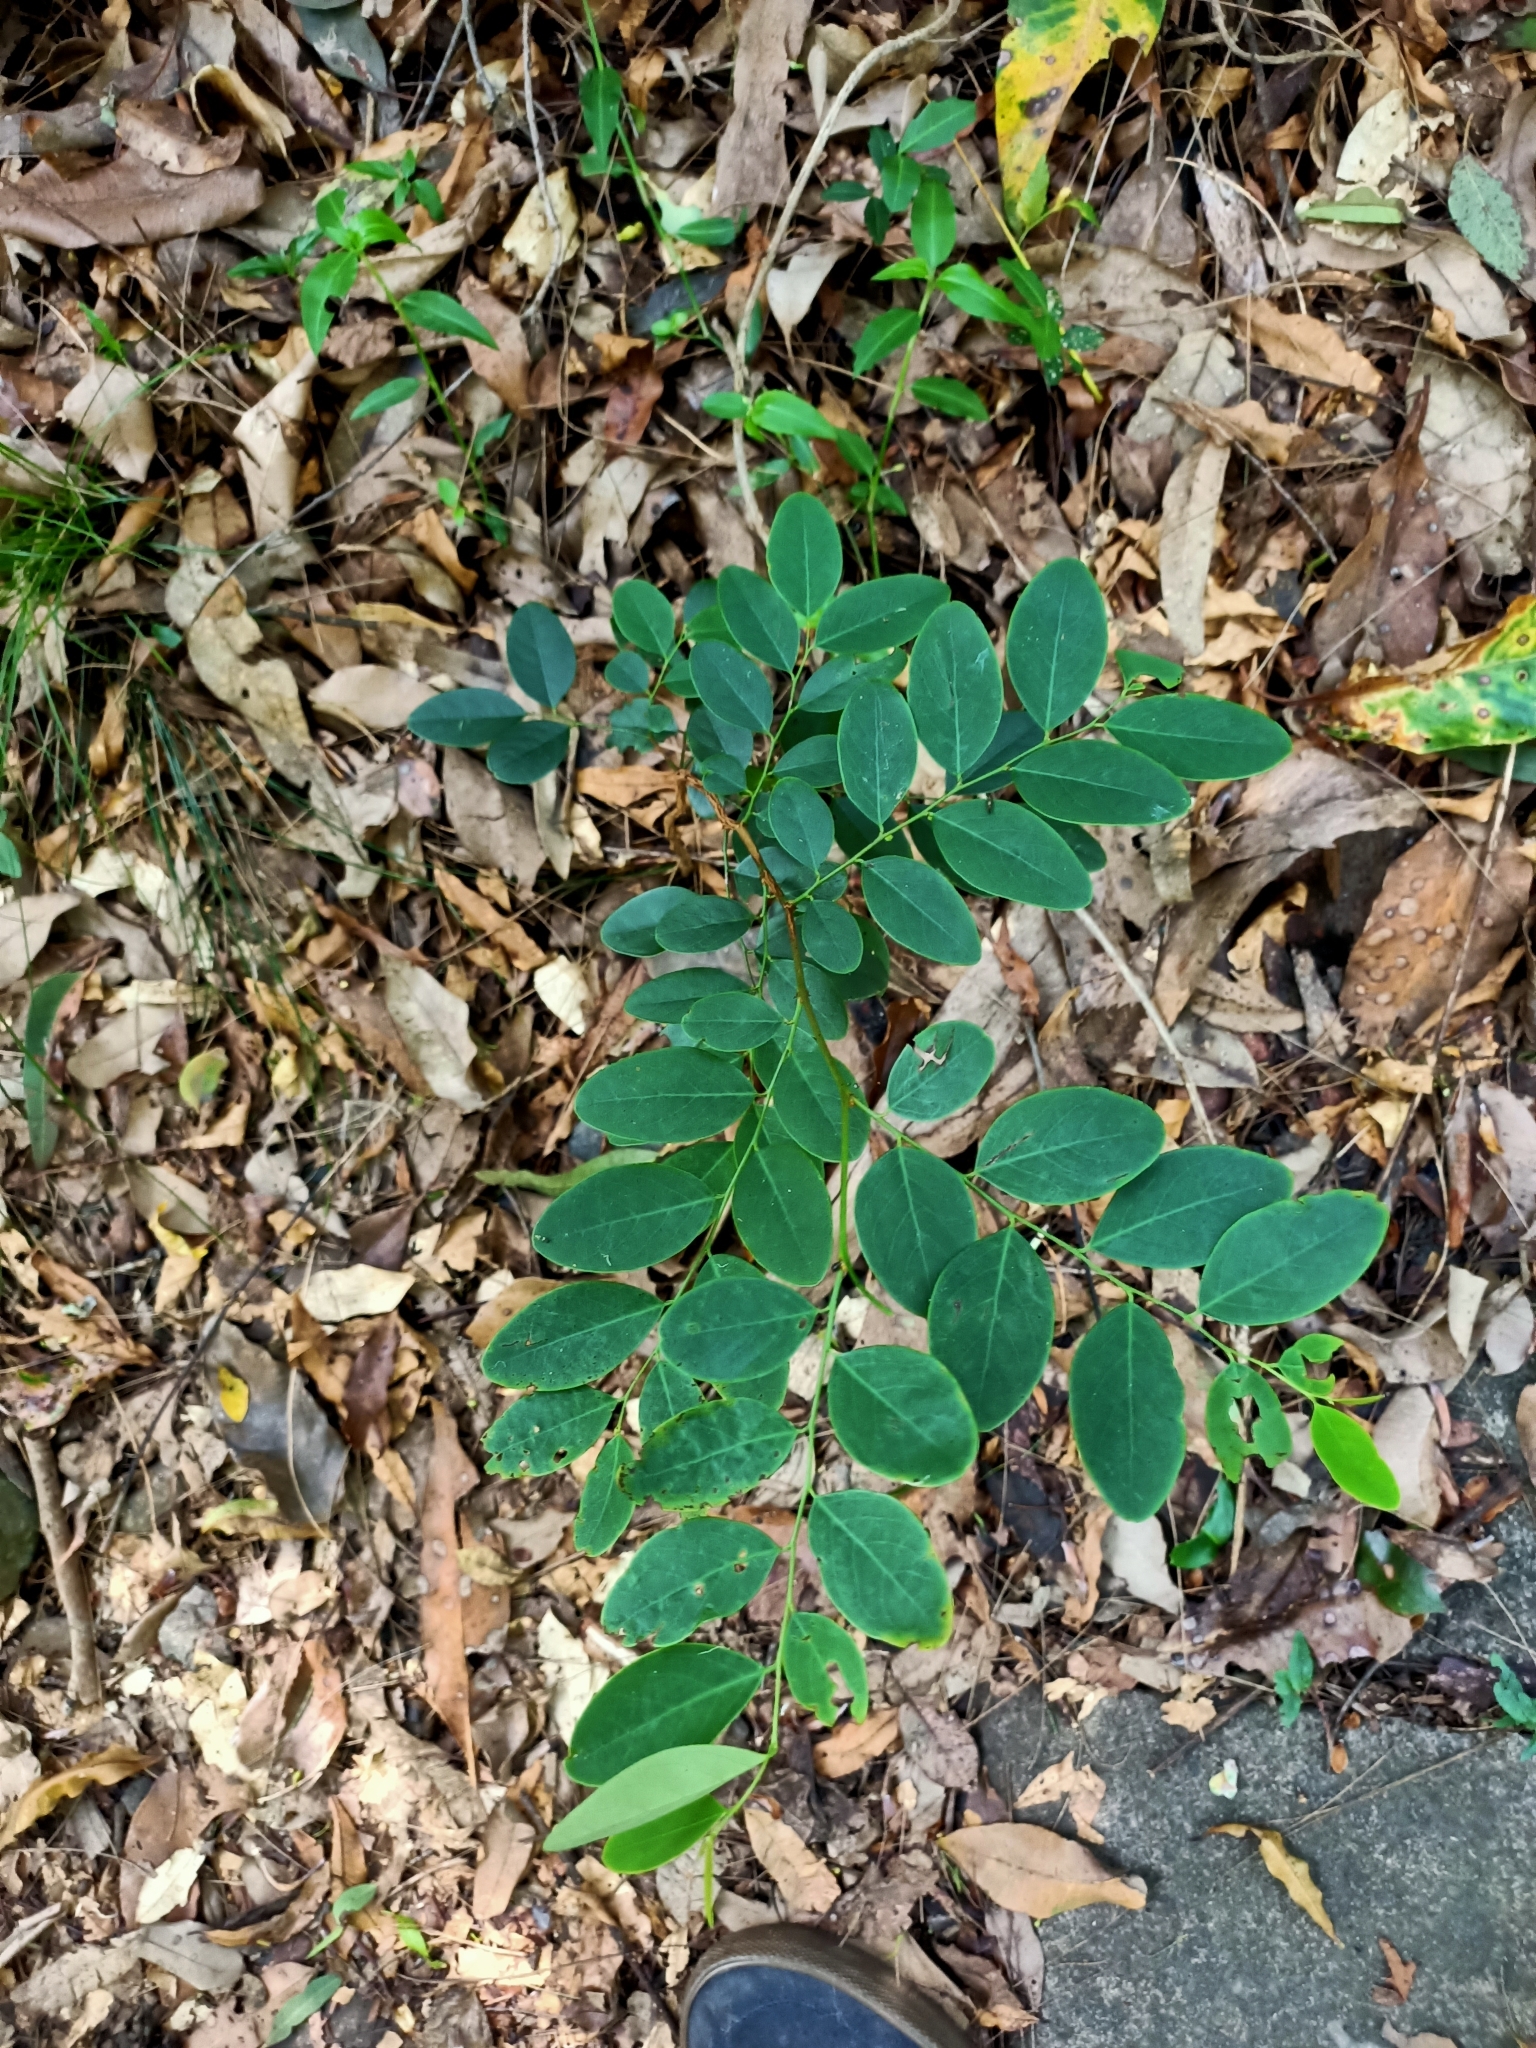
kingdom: Plantae
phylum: Tracheophyta
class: Magnoliopsida
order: Malpighiales
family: Phyllanthaceae
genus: Breynia
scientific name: Breynia oblongifolia
